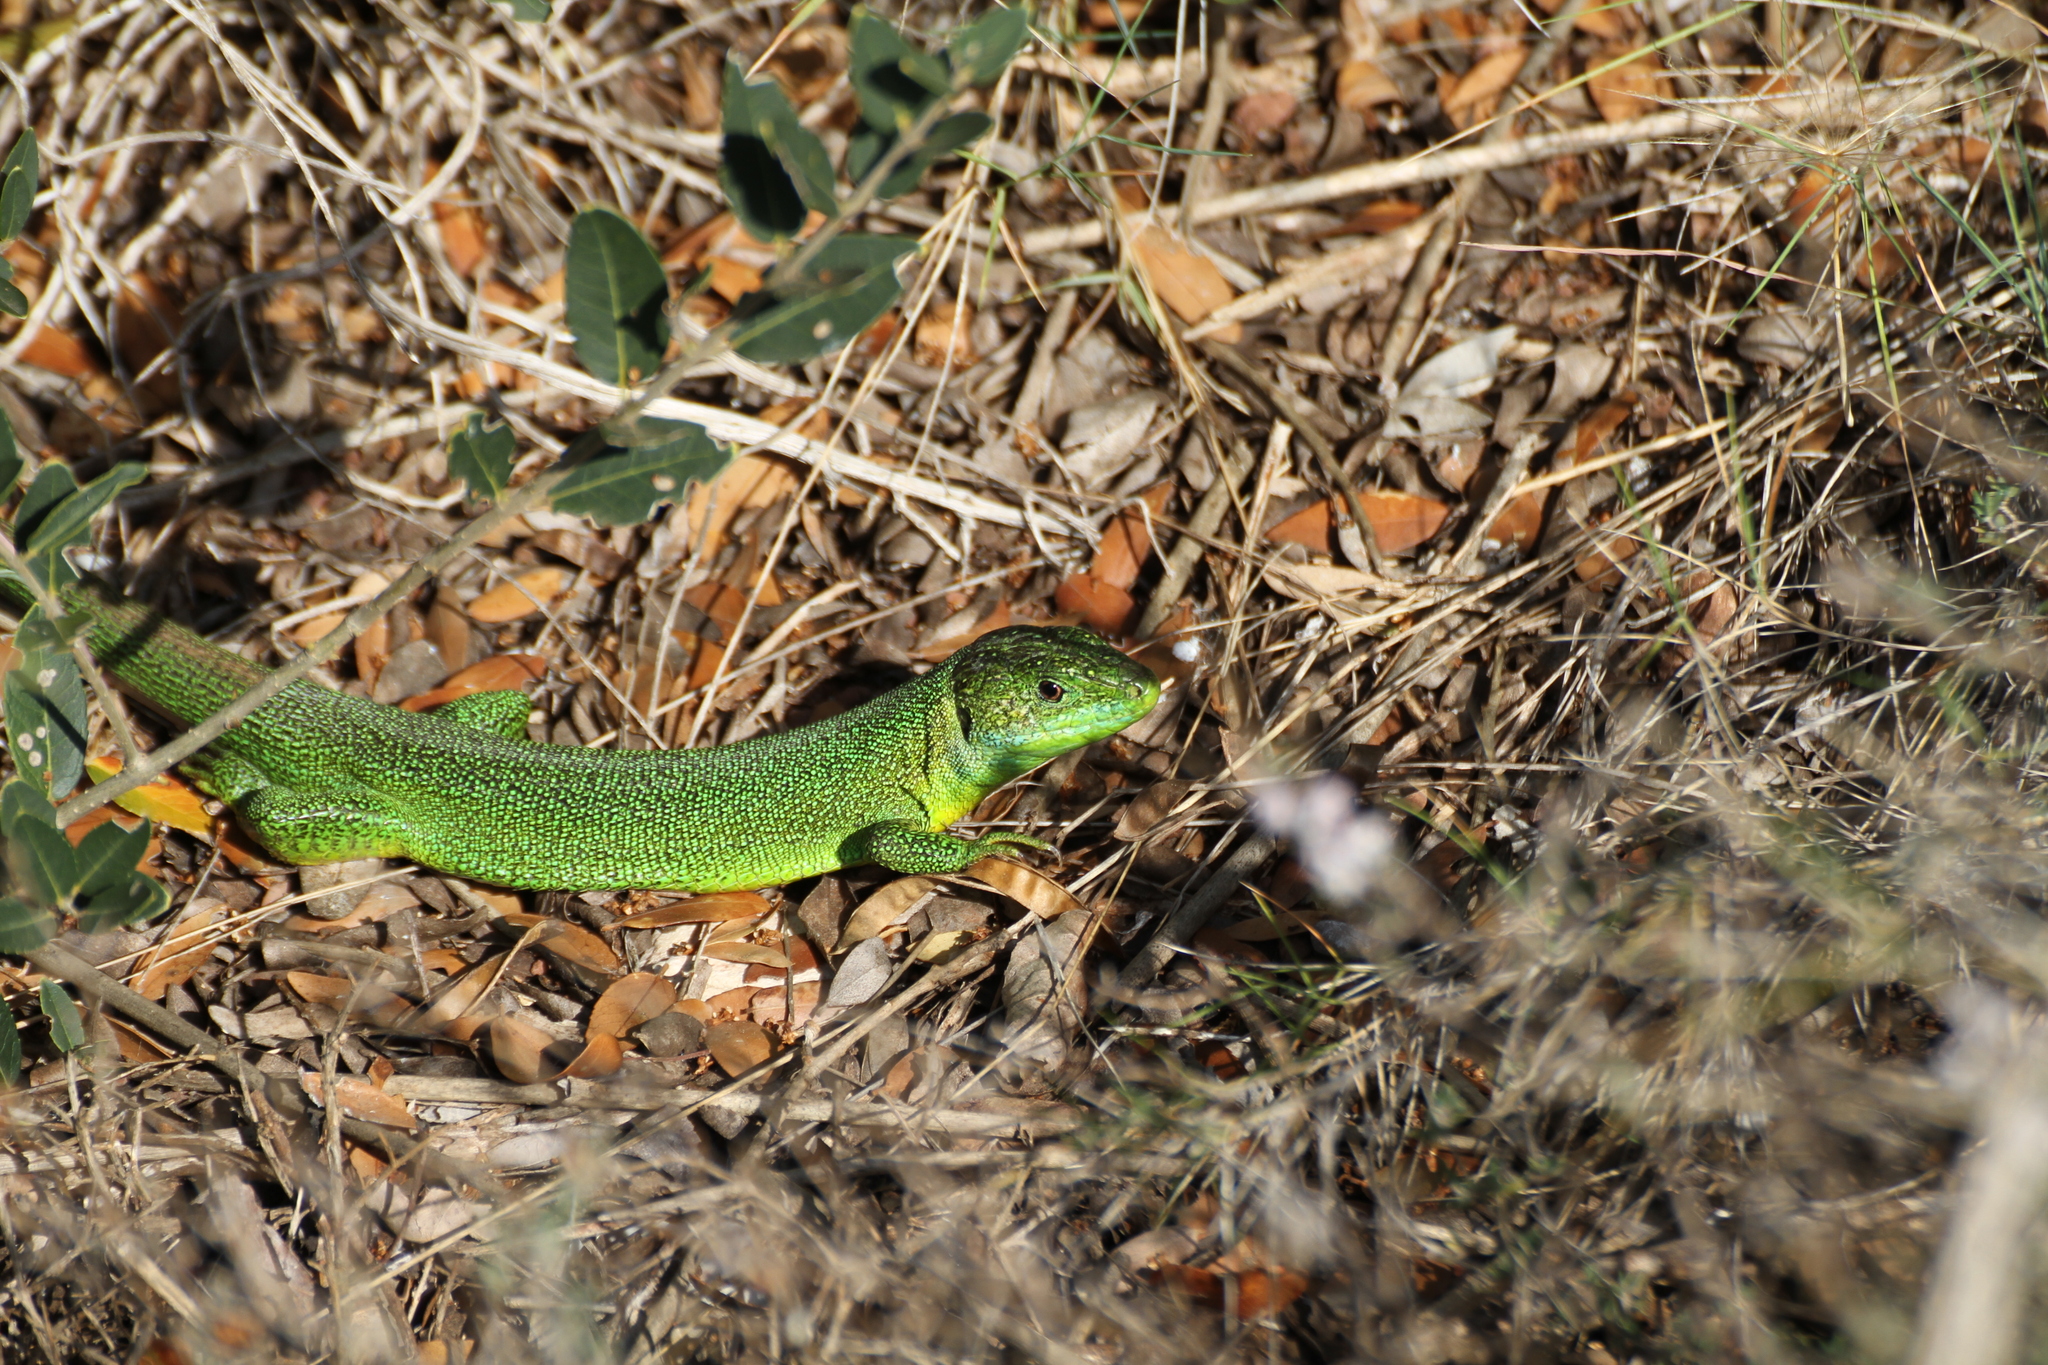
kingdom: Animalia
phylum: Chordata
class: Squamata
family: Lacertidae
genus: Lacerta
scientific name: Lacerta bilineata
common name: Western green lizard
